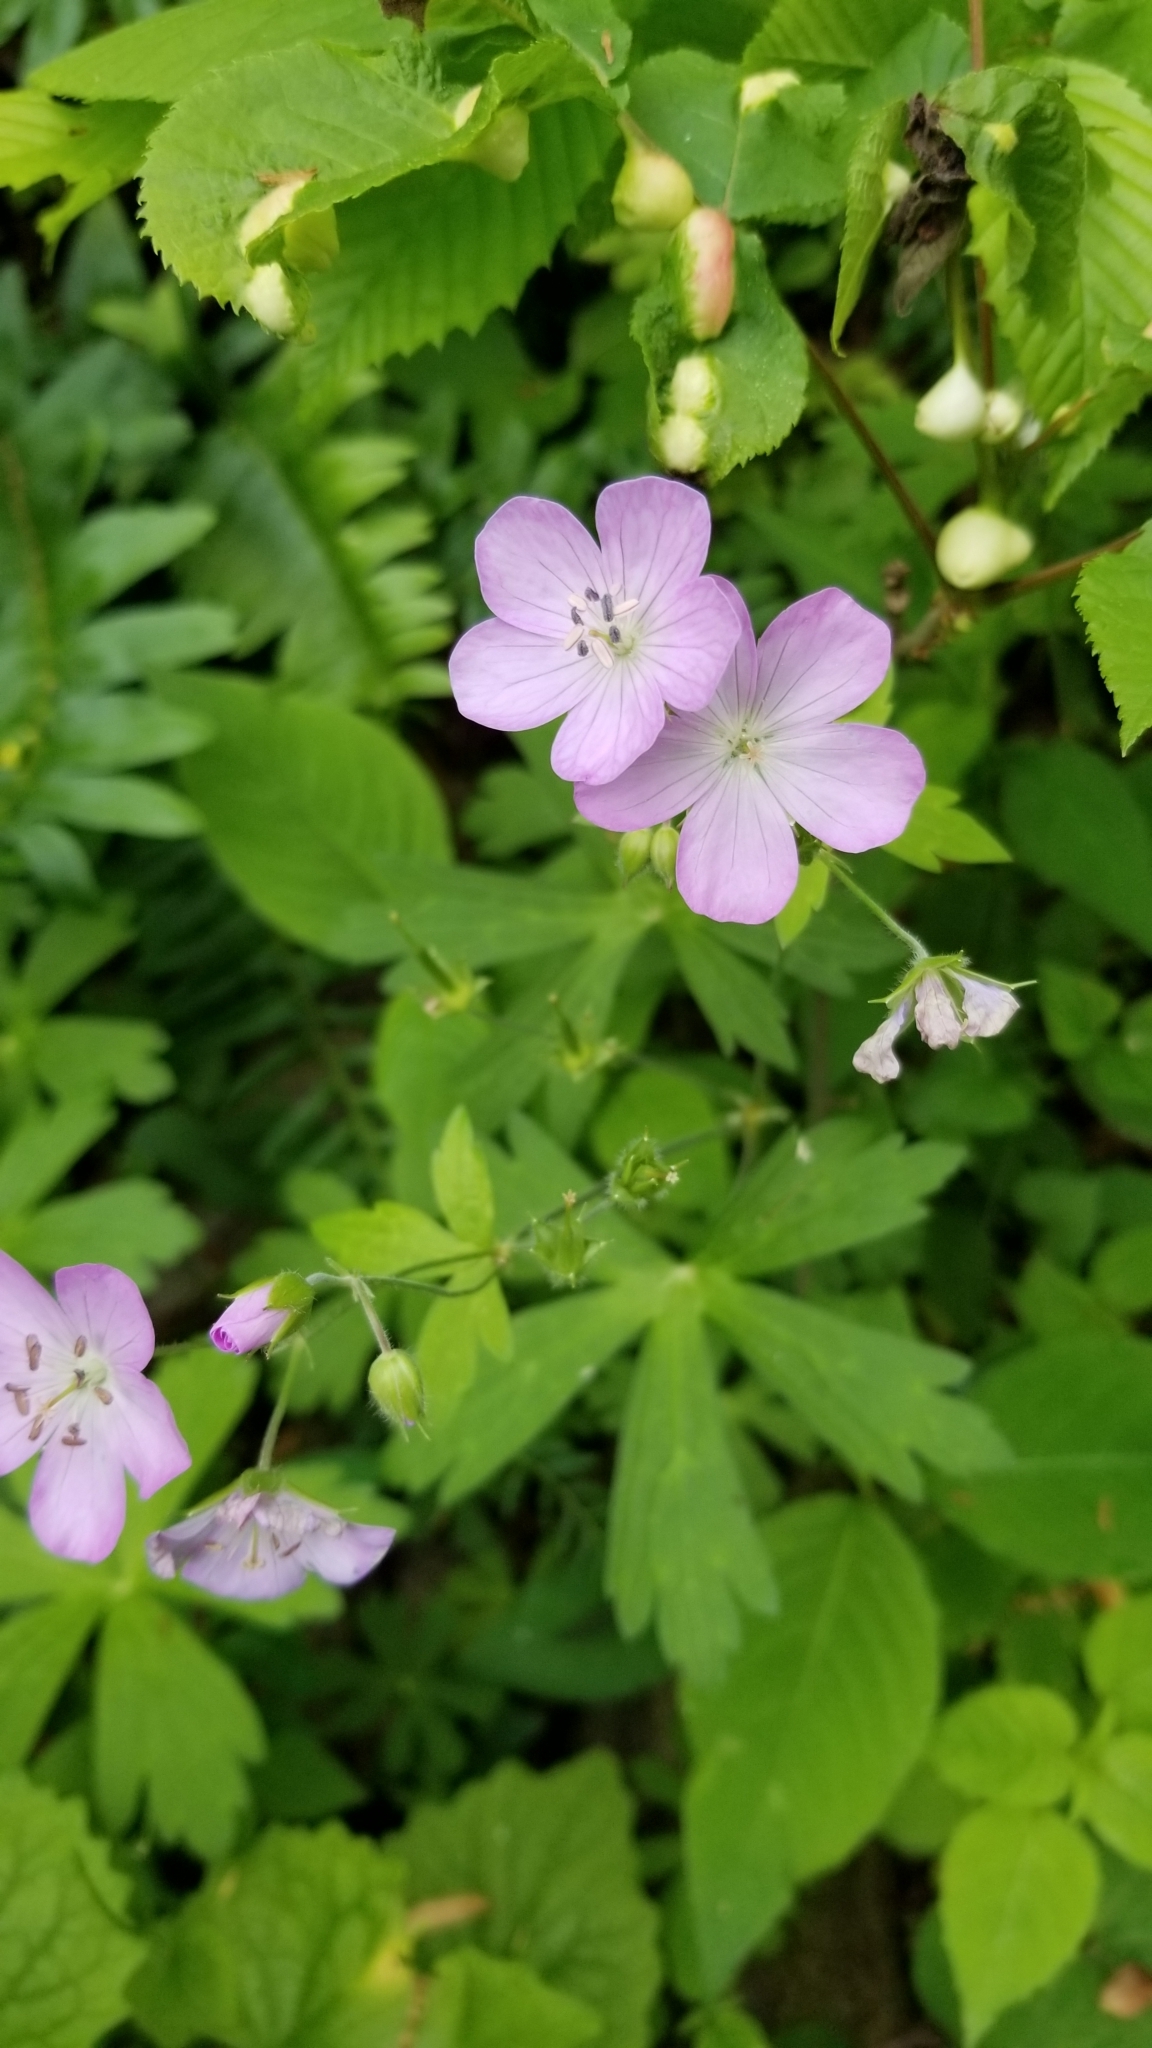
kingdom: Plantae
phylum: Tracheophyta
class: Magnoliopsida
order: Geraniales
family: Geraniaceae
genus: Geranium
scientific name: Geranium maculatum
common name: Spotted geranium
